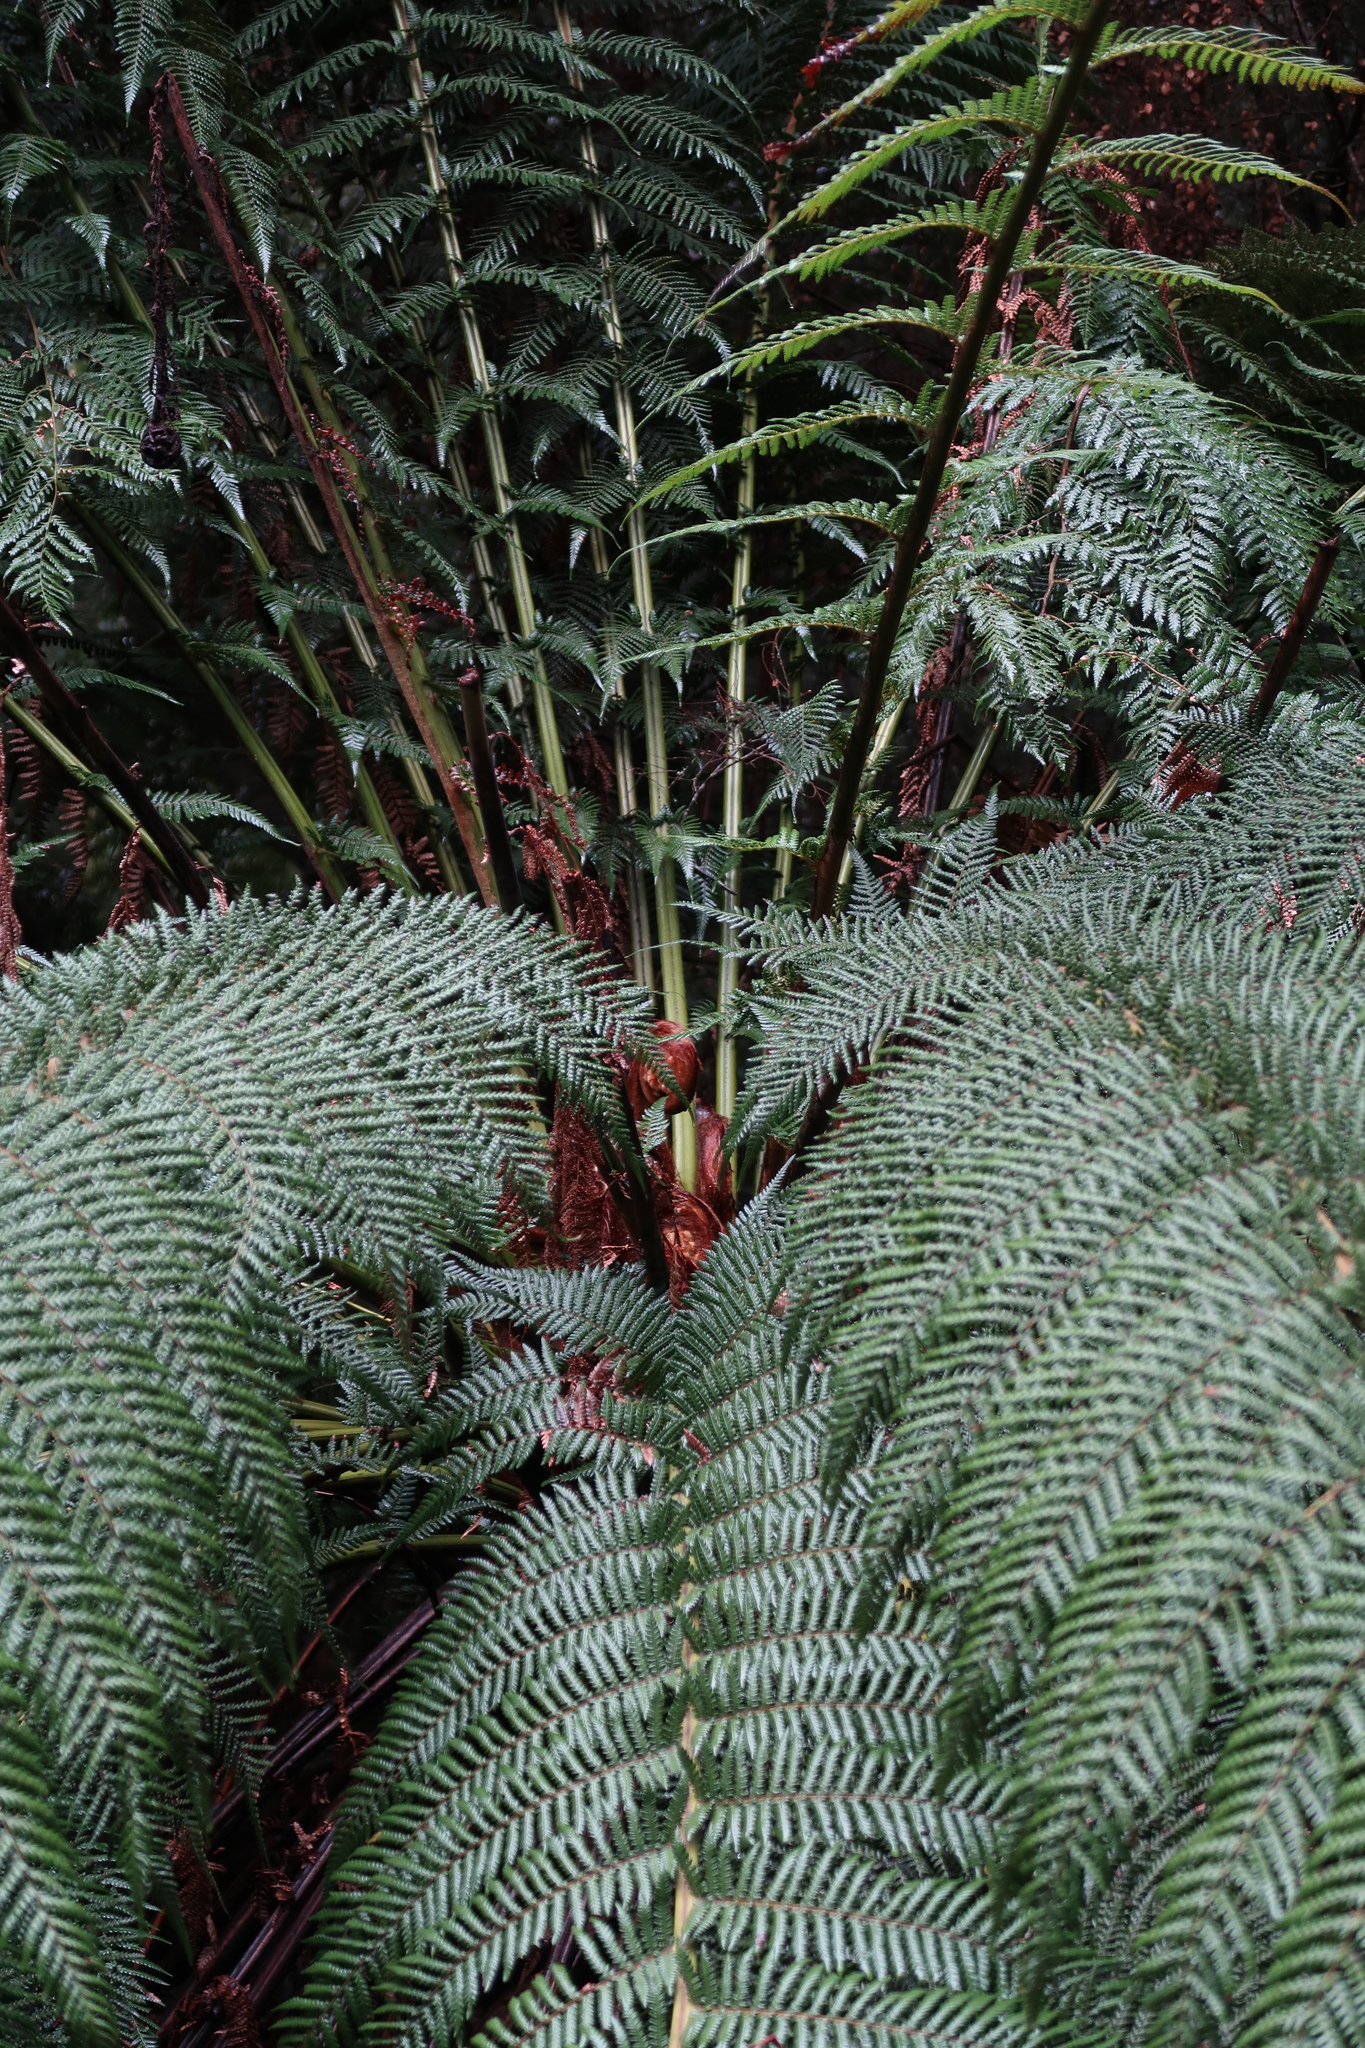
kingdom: Plantae
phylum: Tracheophyta
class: Polypodiopsida
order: Cyatheales
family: Dicksoniaceae
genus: Dicksonia
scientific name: Dicksonia antarctica
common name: Australian treefern
